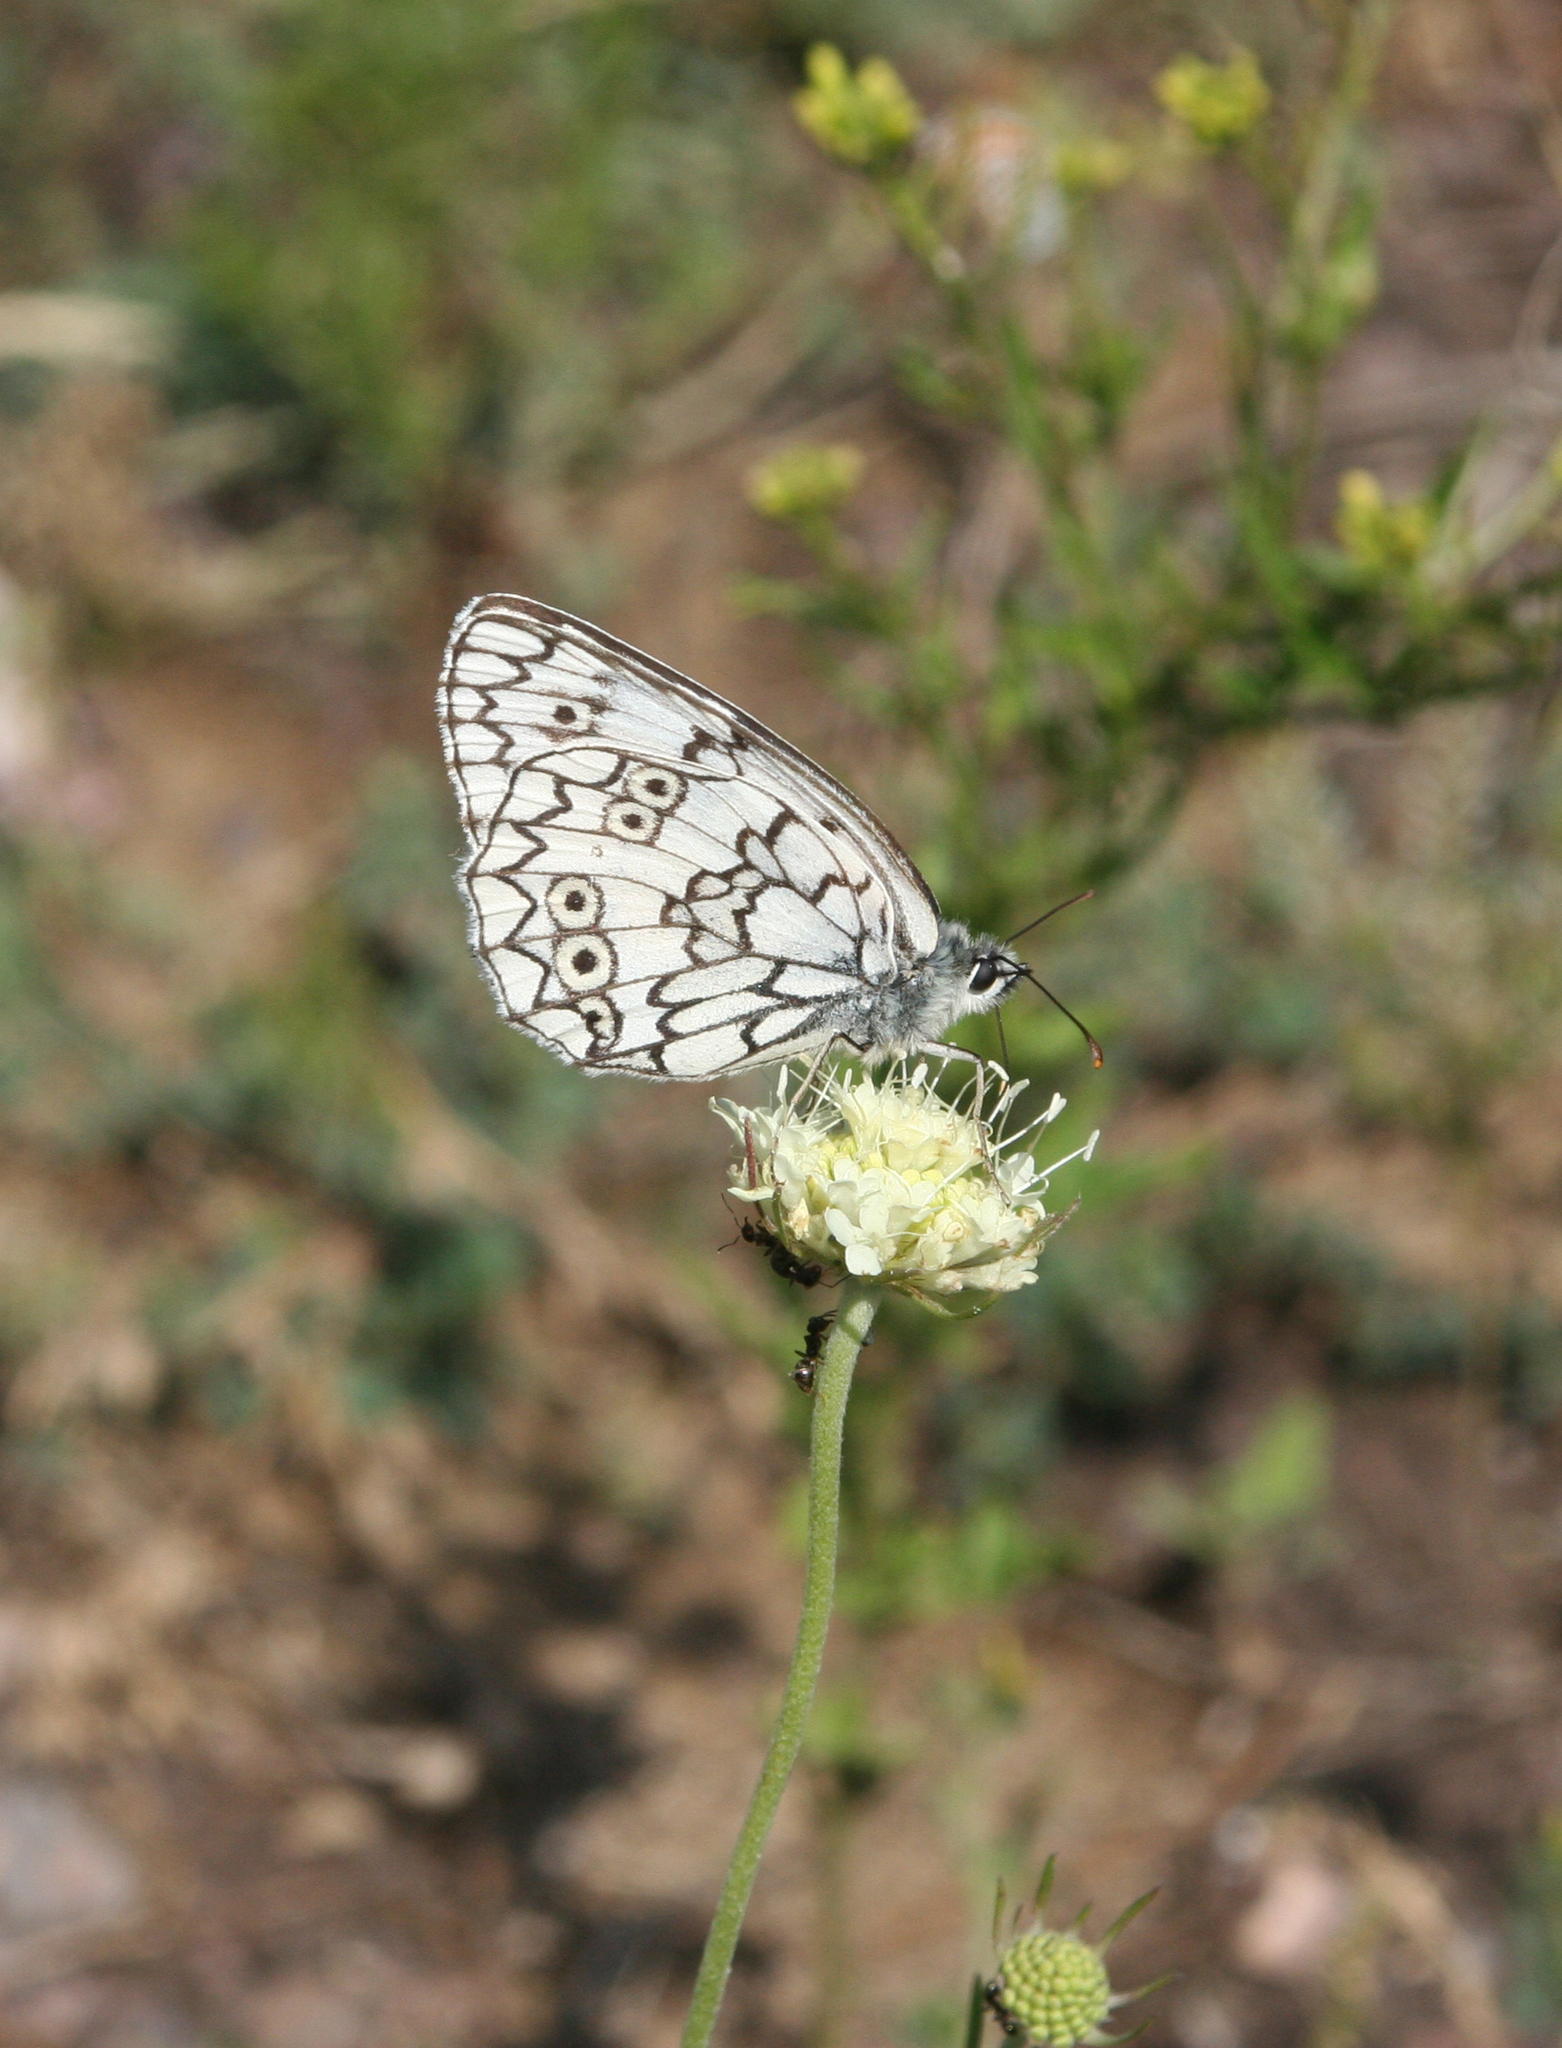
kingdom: Plantae
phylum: Tracheophyta
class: Magnoliopsida
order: Dipsacales
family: Caprifoliaceae
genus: Scabiosa
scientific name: Scabiosa ochroleuca
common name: Cream pincushions
